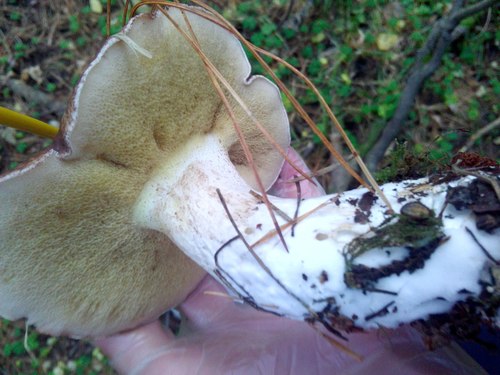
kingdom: Fungi
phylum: Basidiomycota
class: Agaricomycetes
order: Boletales
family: Suillaceae
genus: Suillus
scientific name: Suillus placidus
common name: Slippery white bolete
